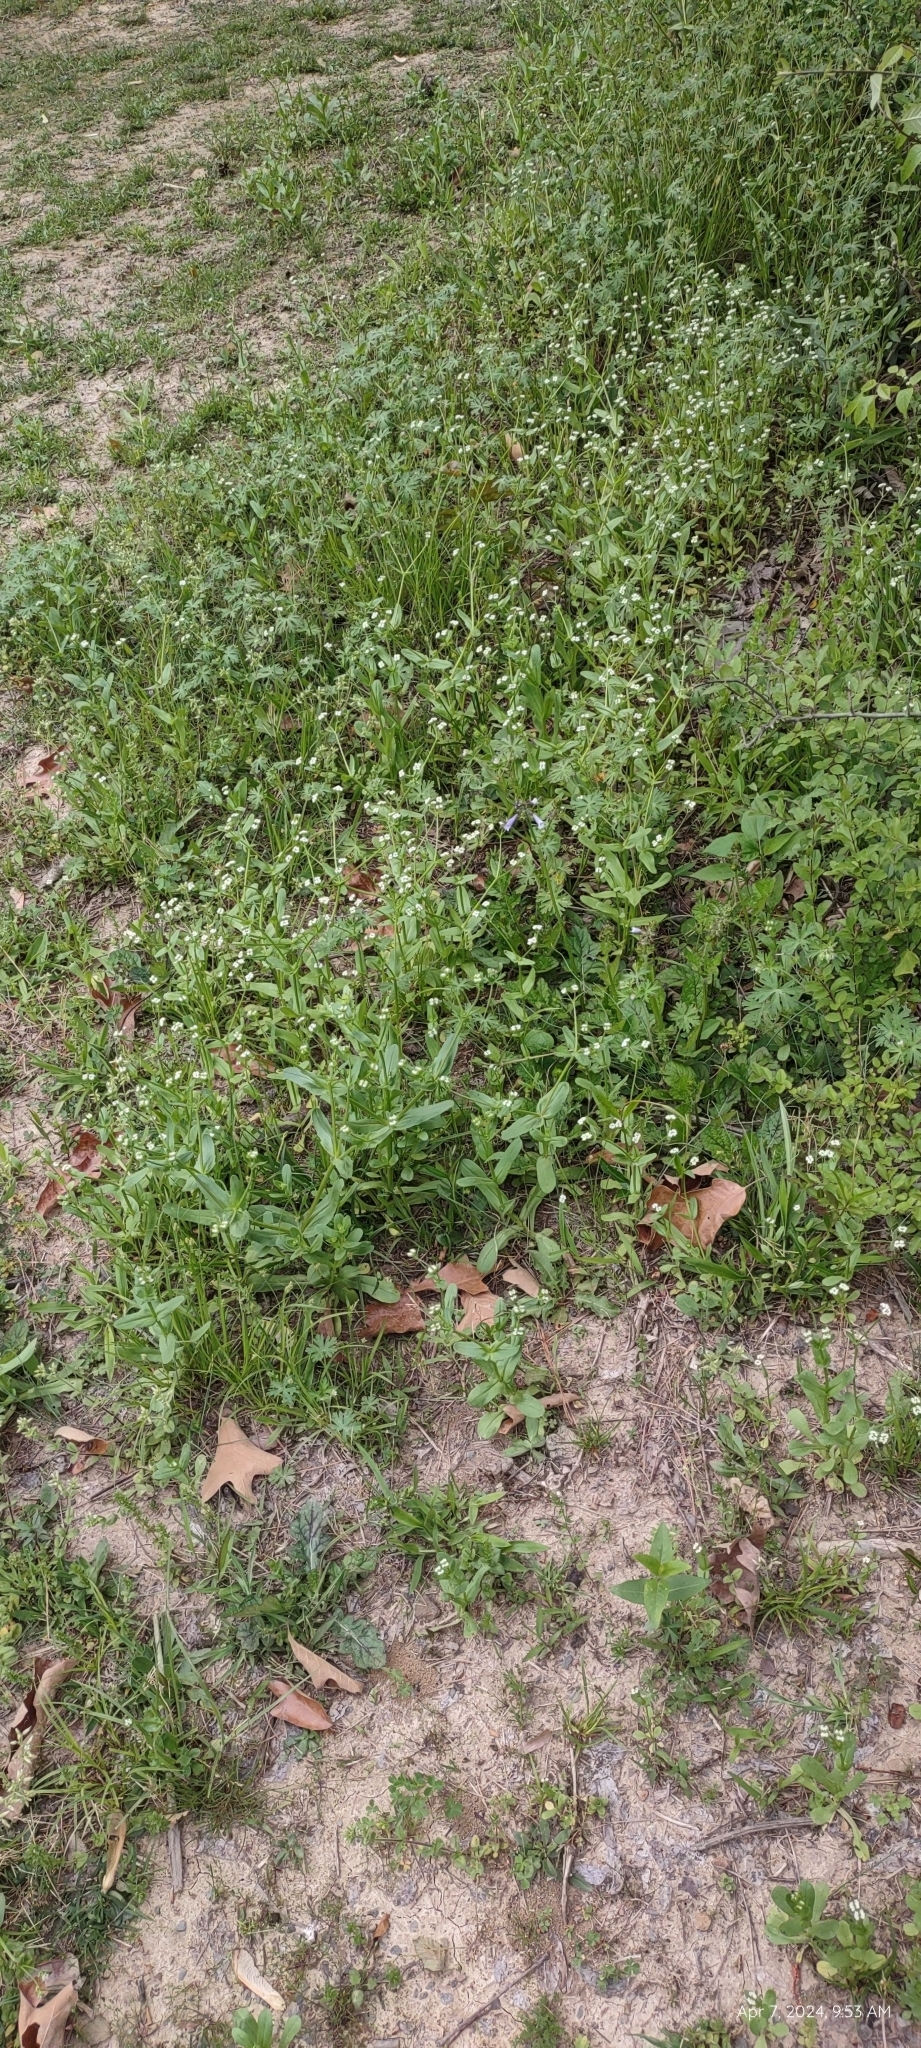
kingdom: Plantae
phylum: Tracheophyta
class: Magnoliopsida
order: Dipsacales
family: Caprifoliaceae
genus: Valerianella
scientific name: Valerianella radiata
